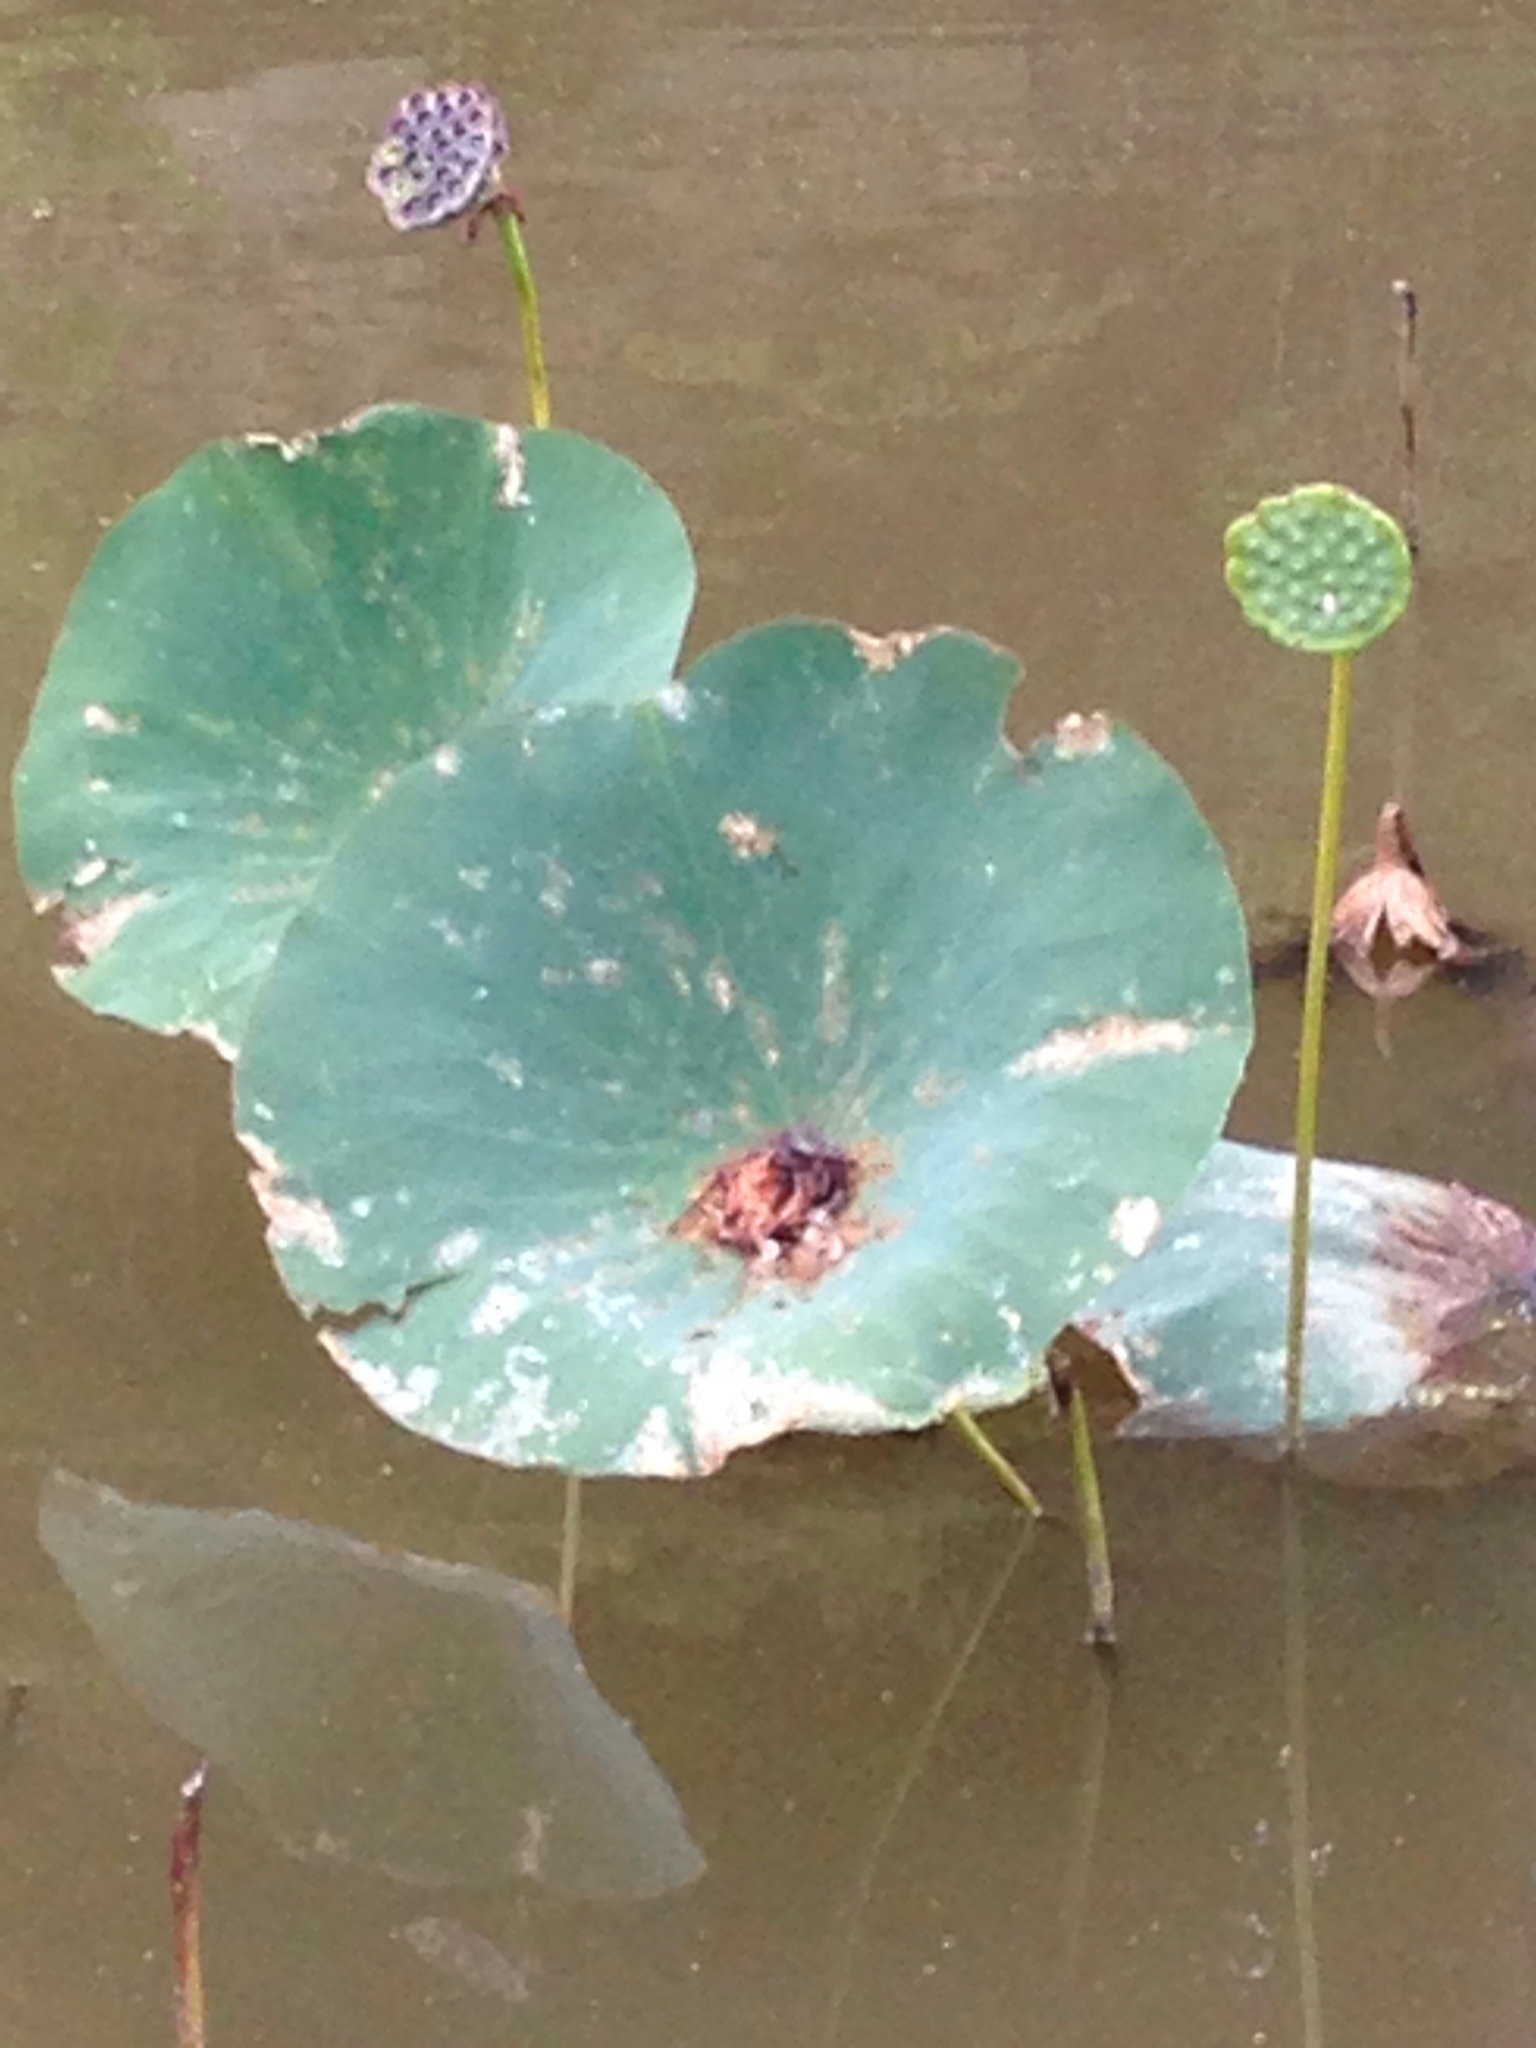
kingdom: Plantae
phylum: Tracheophyta
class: Magnoliopsida
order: Proteales
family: Nelumbonaceae
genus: Nelumbo
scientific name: Nelumbo lutea
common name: American lotus
